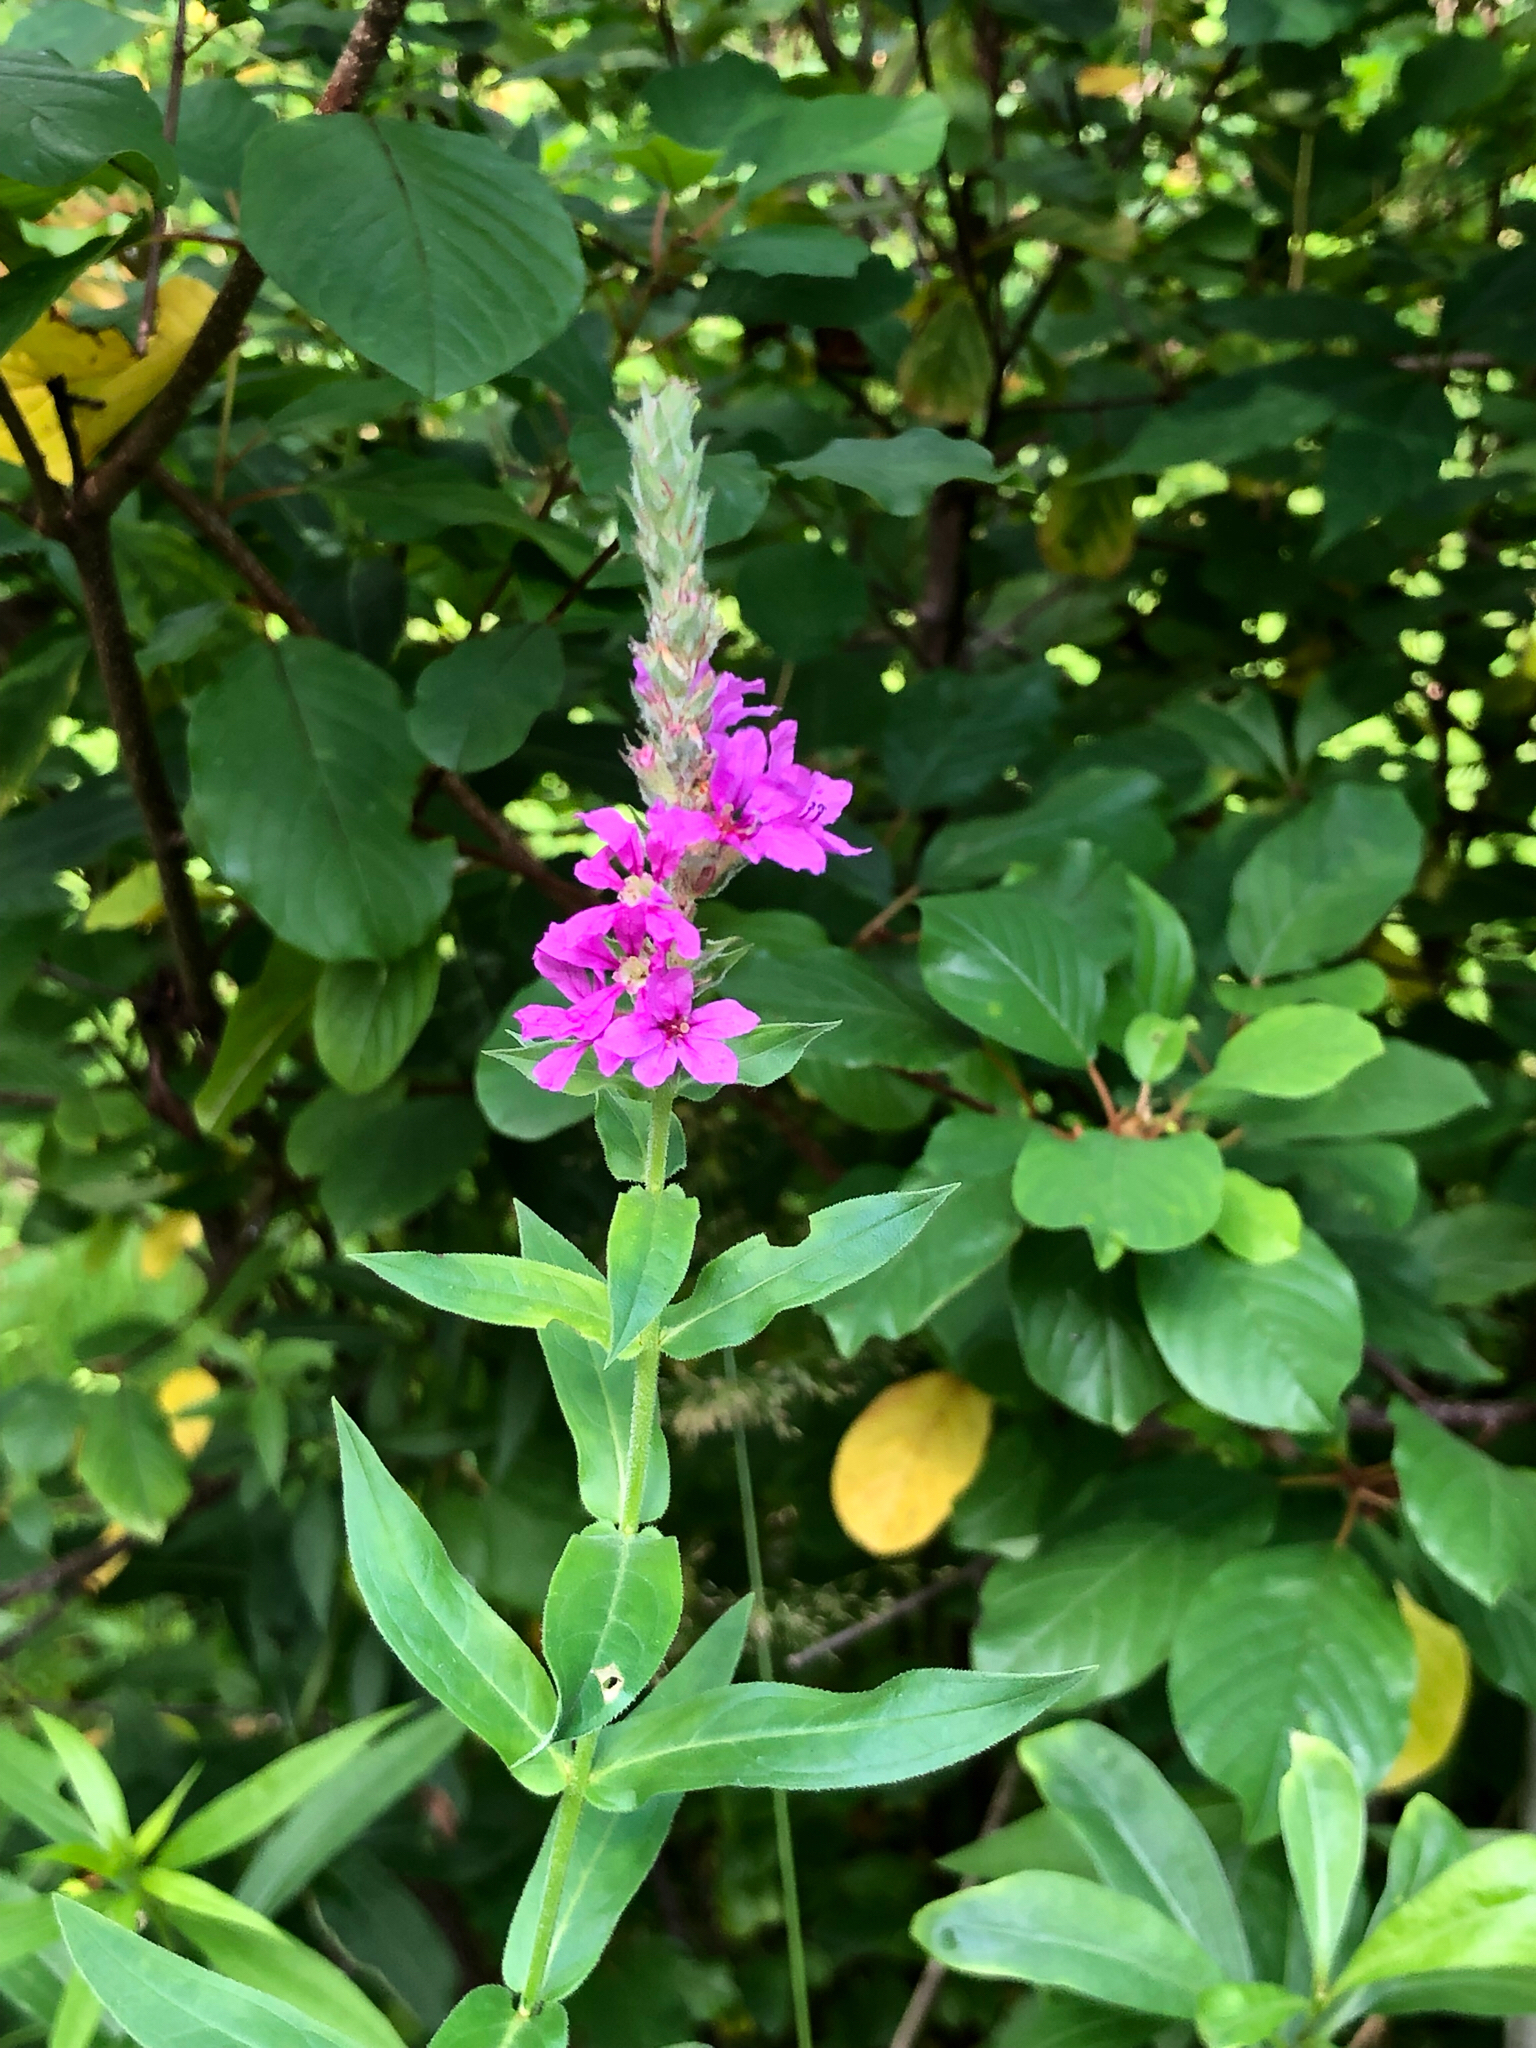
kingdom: Plantae
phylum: Tracheophyta
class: Magnoliopsida
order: Myrtales
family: Lythraceae
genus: Lythrum
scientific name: Lythrum salicaria
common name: Purple loosestrife
